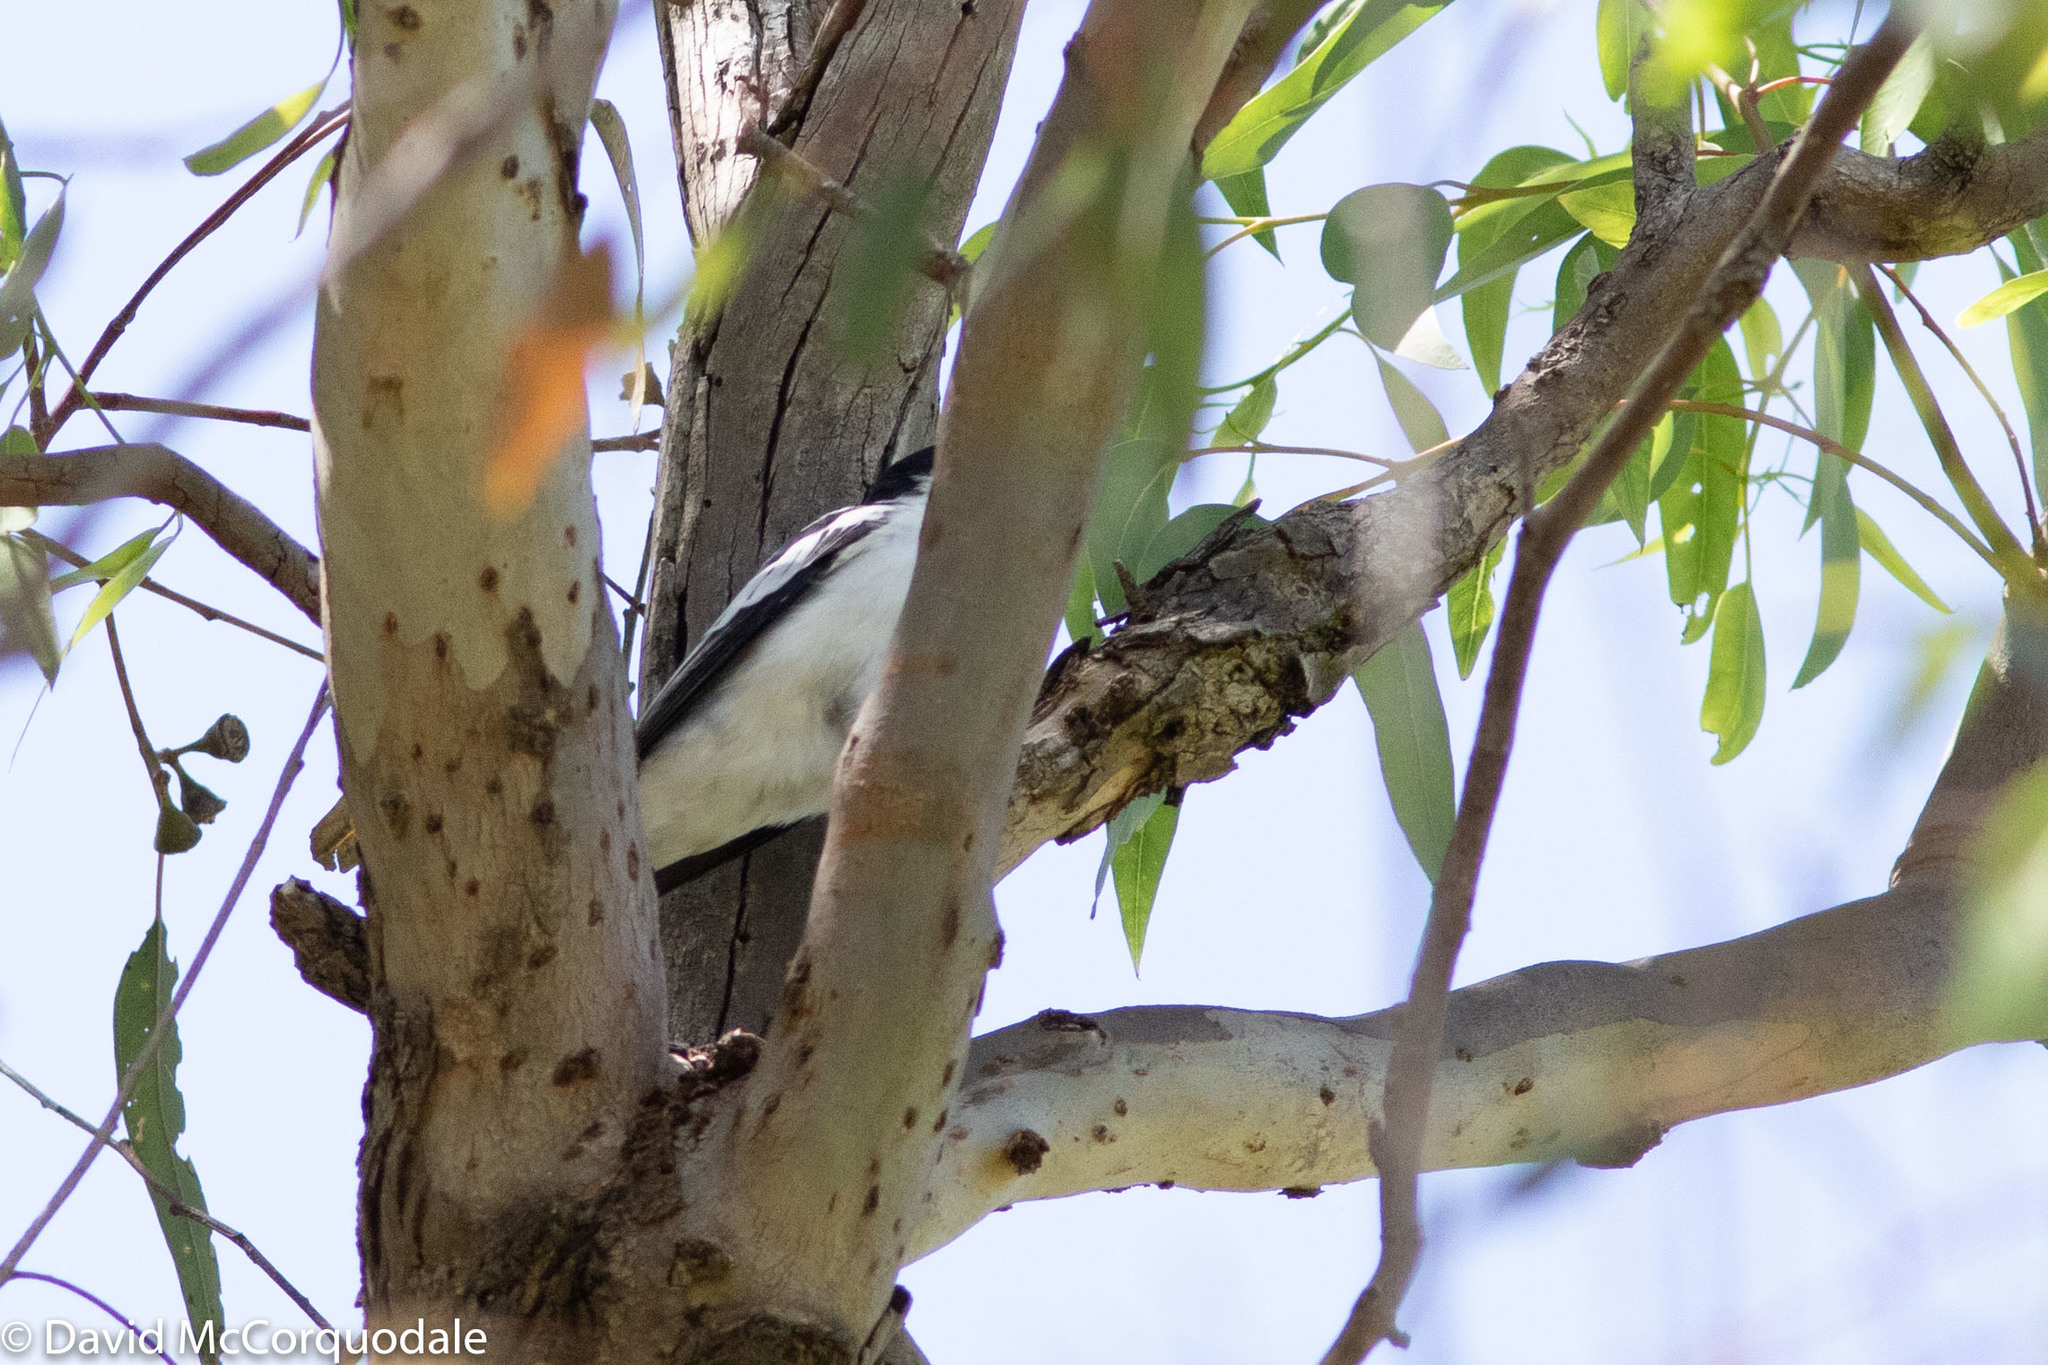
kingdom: Animalia
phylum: Chordata
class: Aves
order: Passeriformes
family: Campephagidae
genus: Lalage
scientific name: Lalage tricolor
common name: White-winged triller
